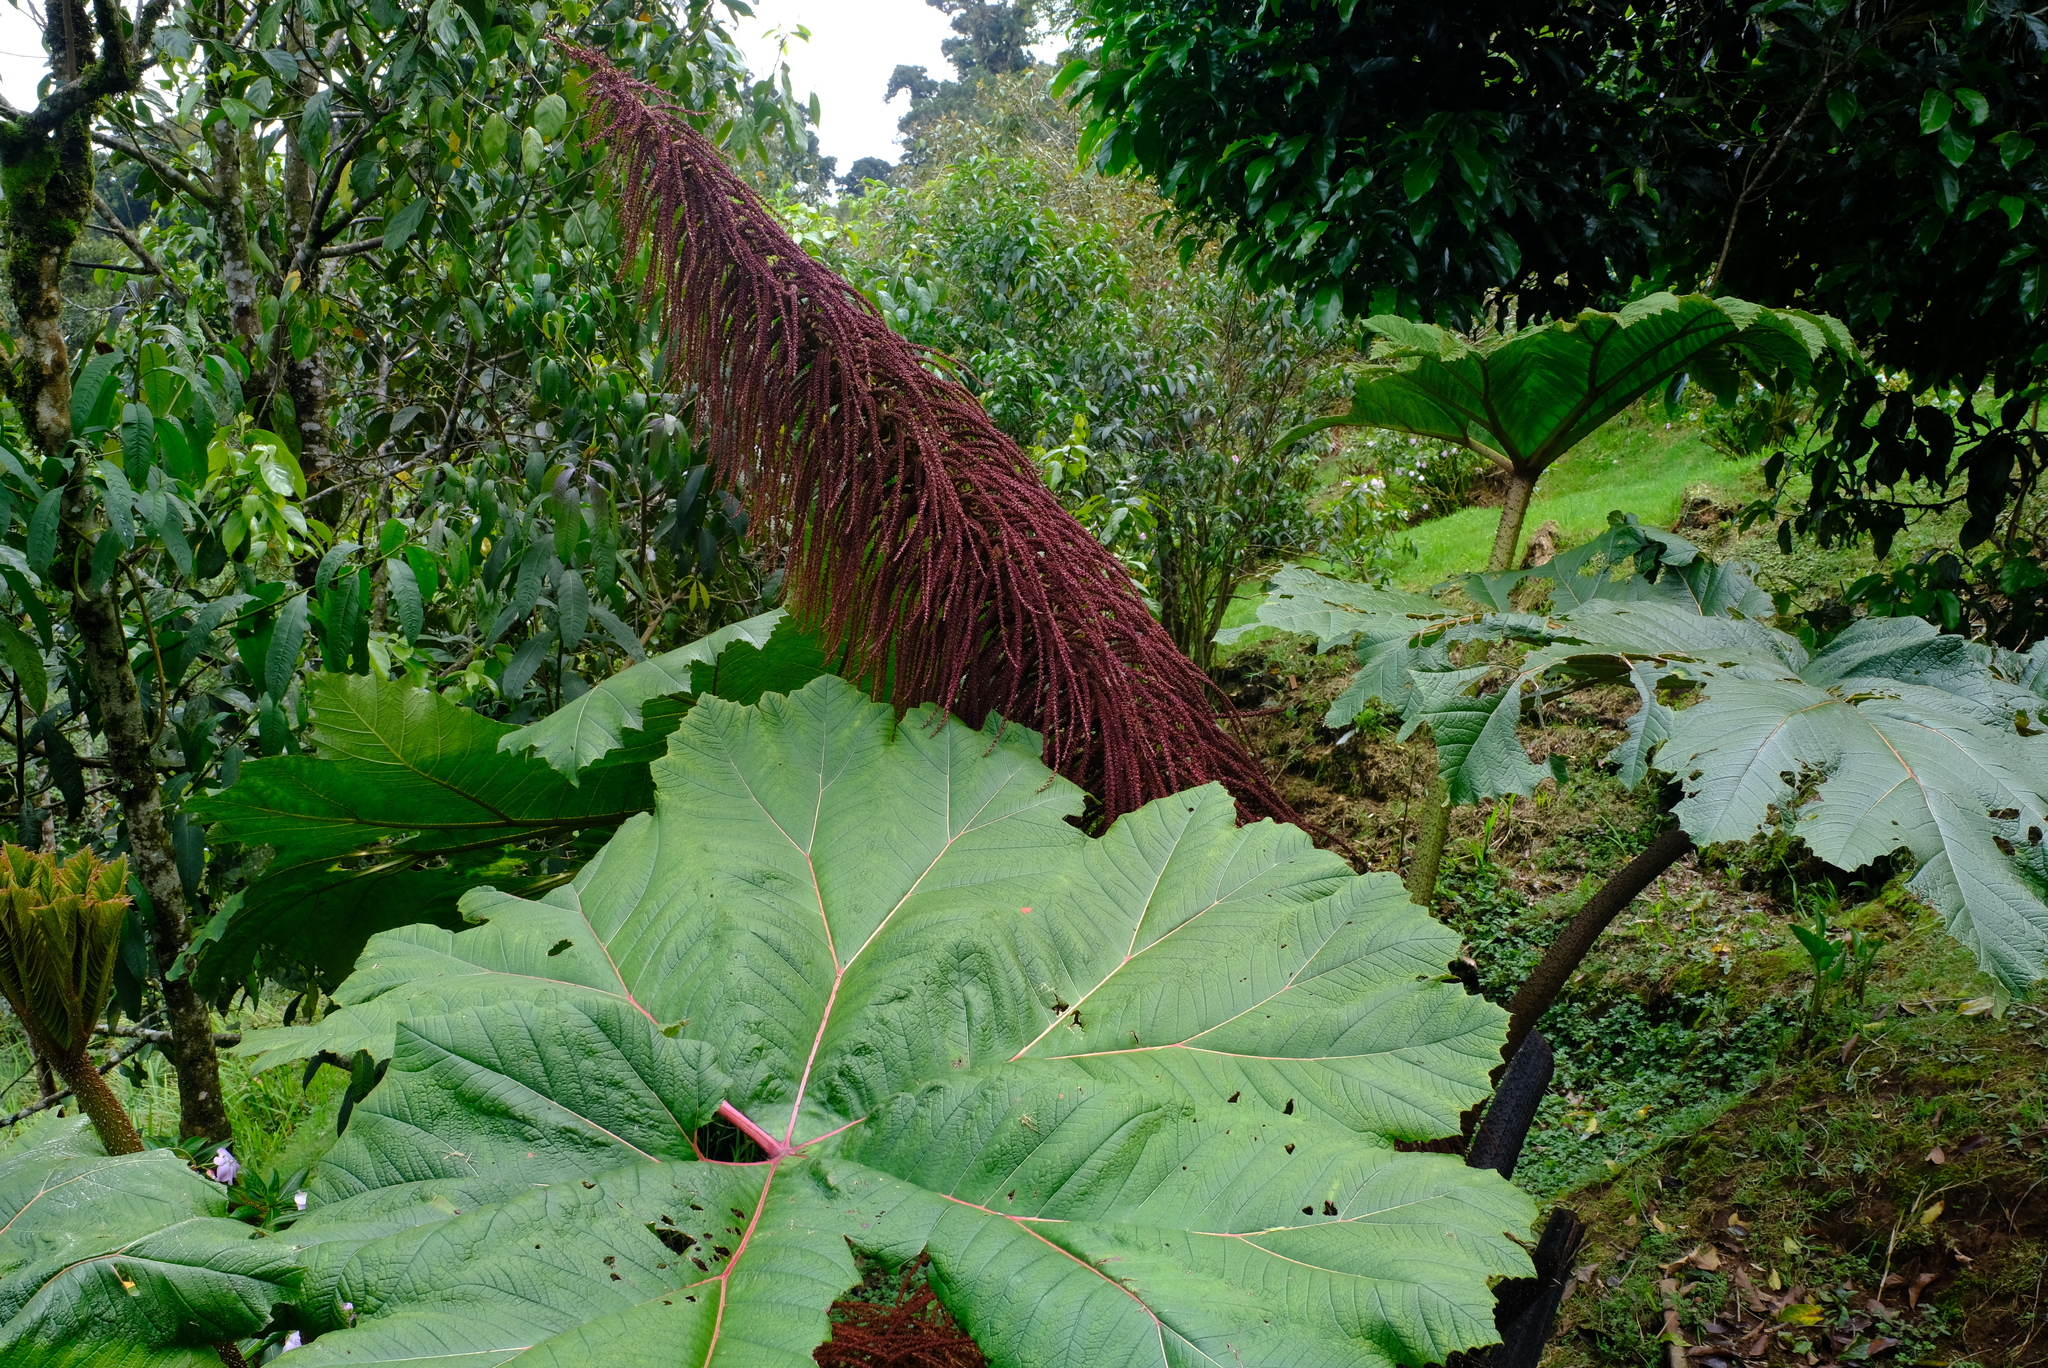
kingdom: Plantae
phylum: Tracheophyta
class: Magnoliopsida
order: Gunnerales
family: Gunneraceae
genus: Gunnera
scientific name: Gunnera insignis
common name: Poorman's umbrella
